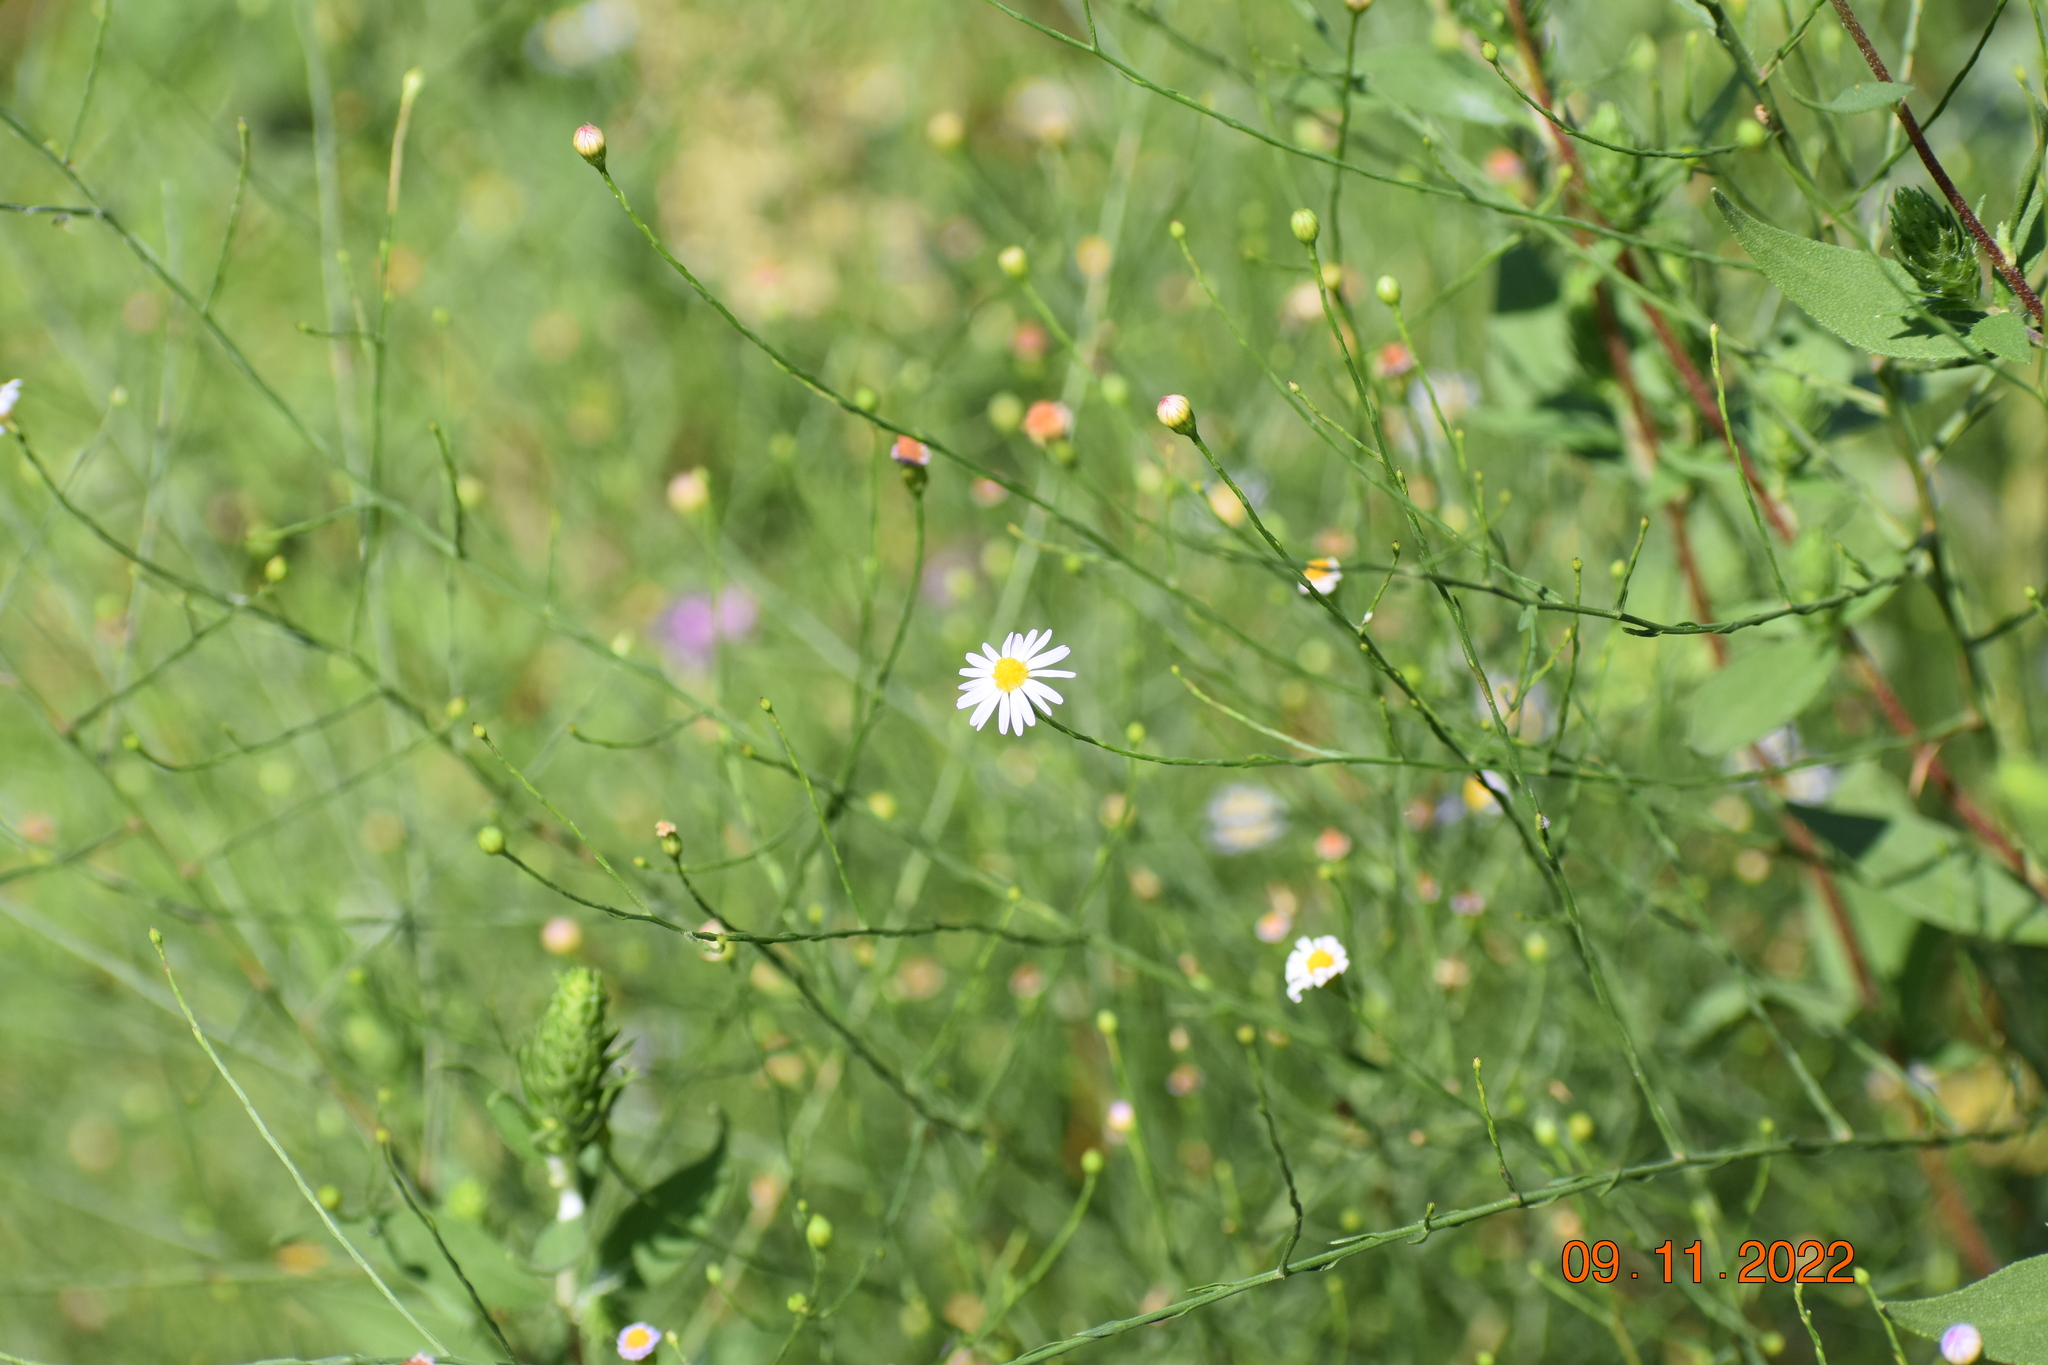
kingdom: Plantae
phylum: Tracheophyta
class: Magnoliopsida
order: Asterales
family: Asteraceae
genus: Symphyotrichum
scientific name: Symphyotrichum divaricatum
